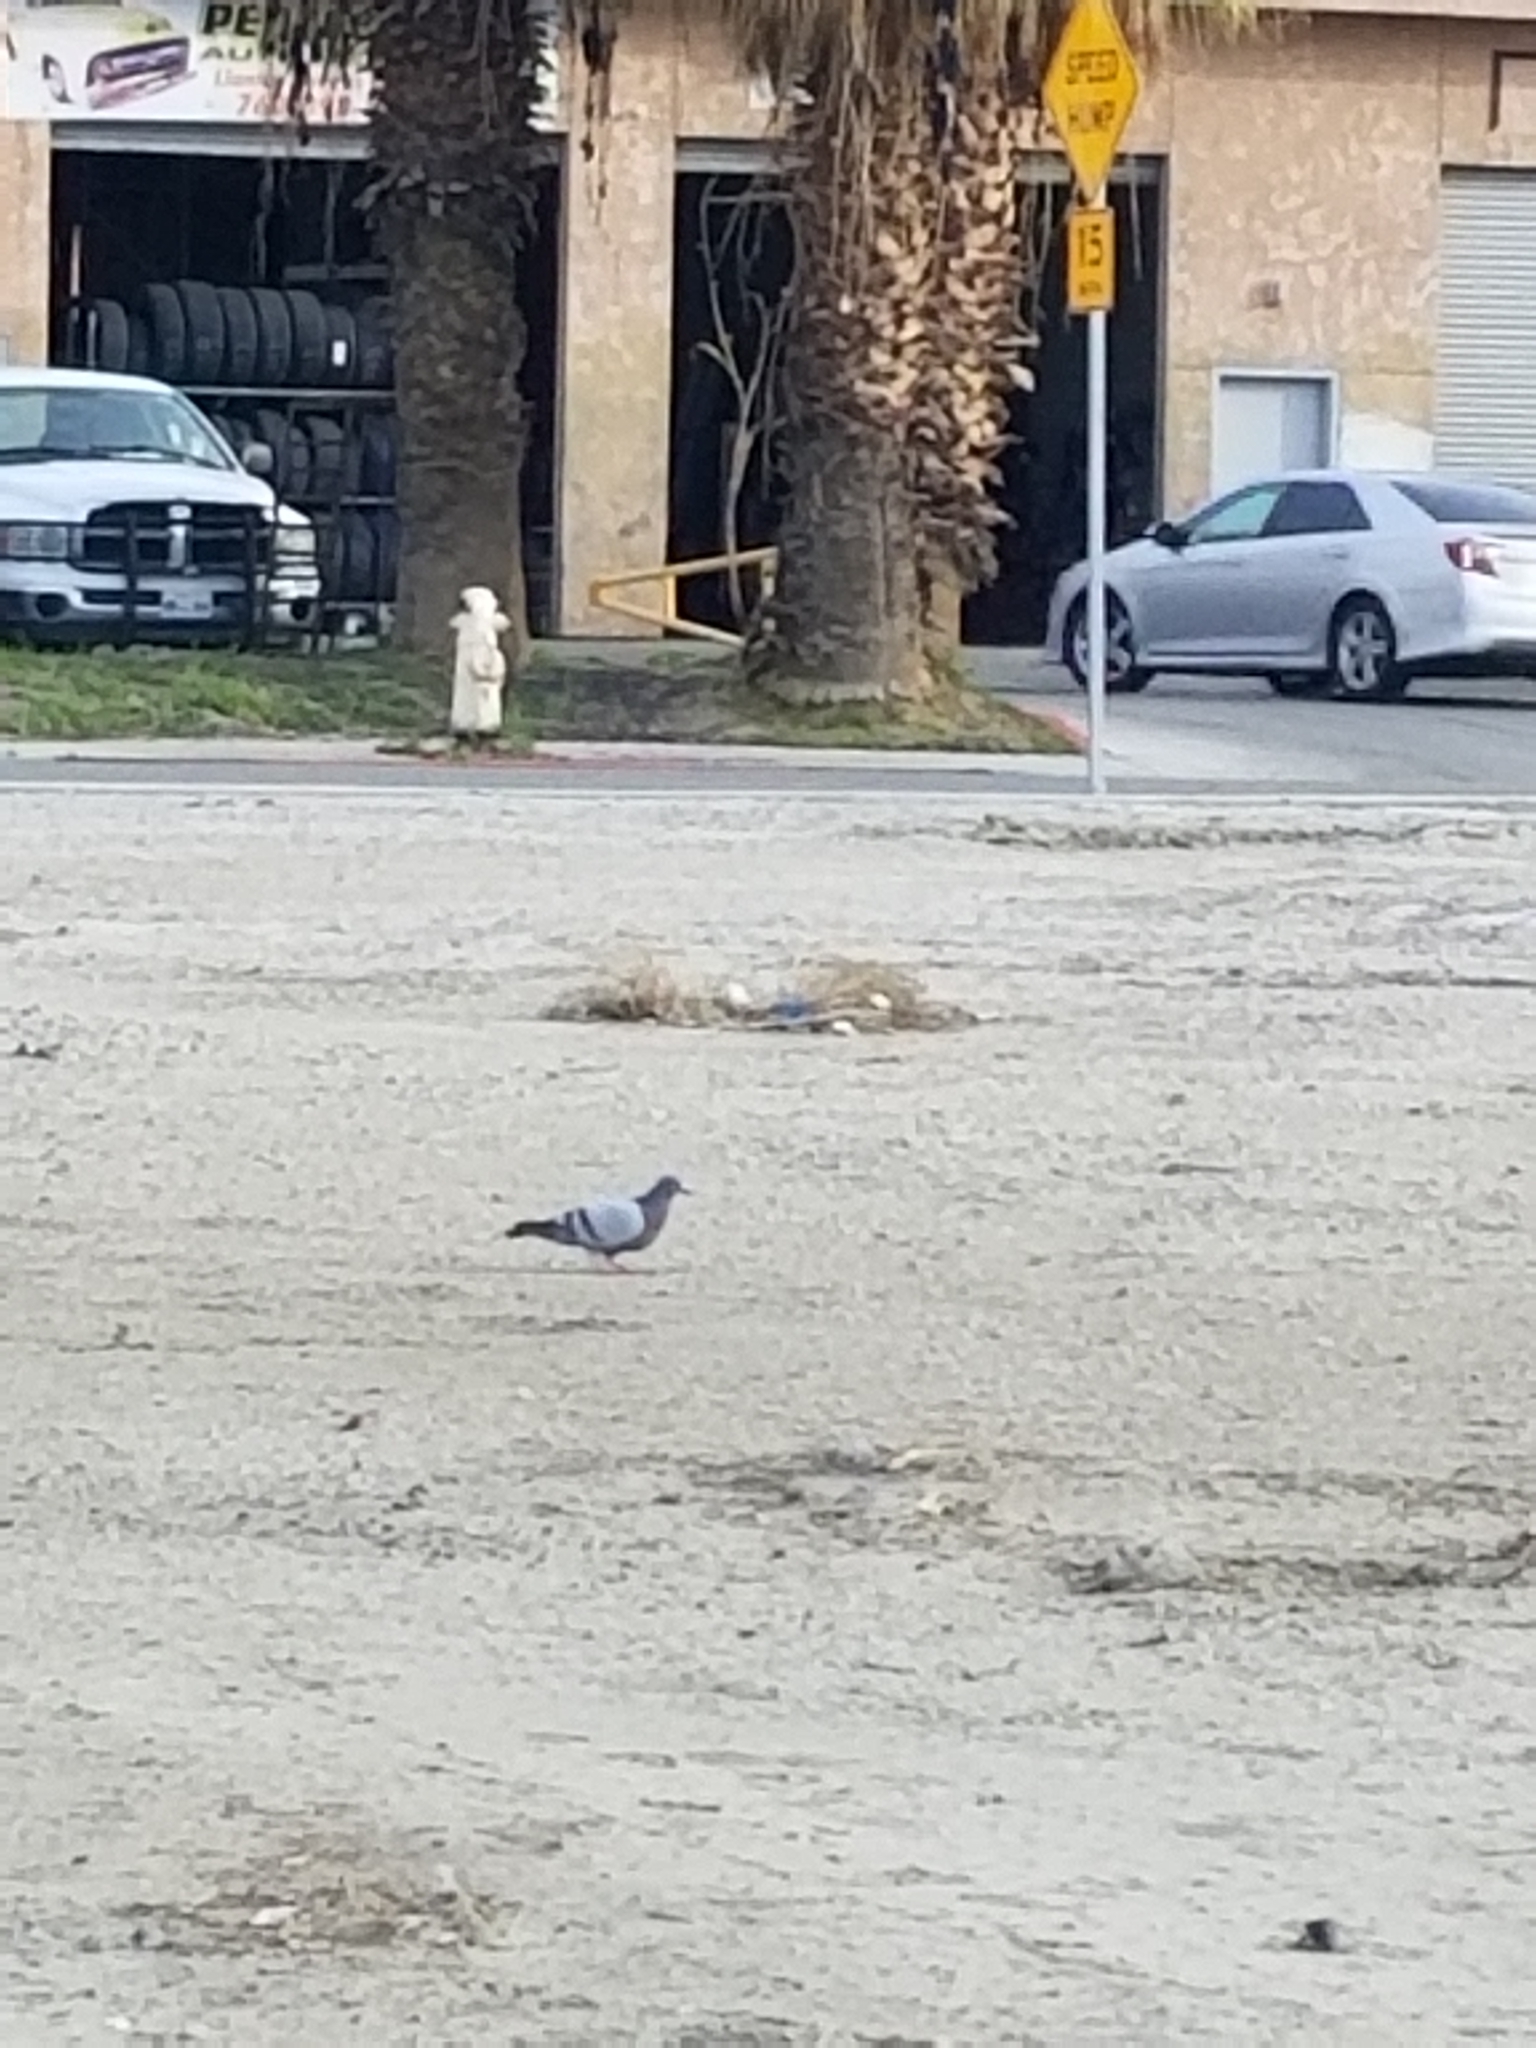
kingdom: Animalia
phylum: Chordata
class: Aves
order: Columbiformes
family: Columbidae
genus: Columba
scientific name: Columba livia
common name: Rock pigeon
